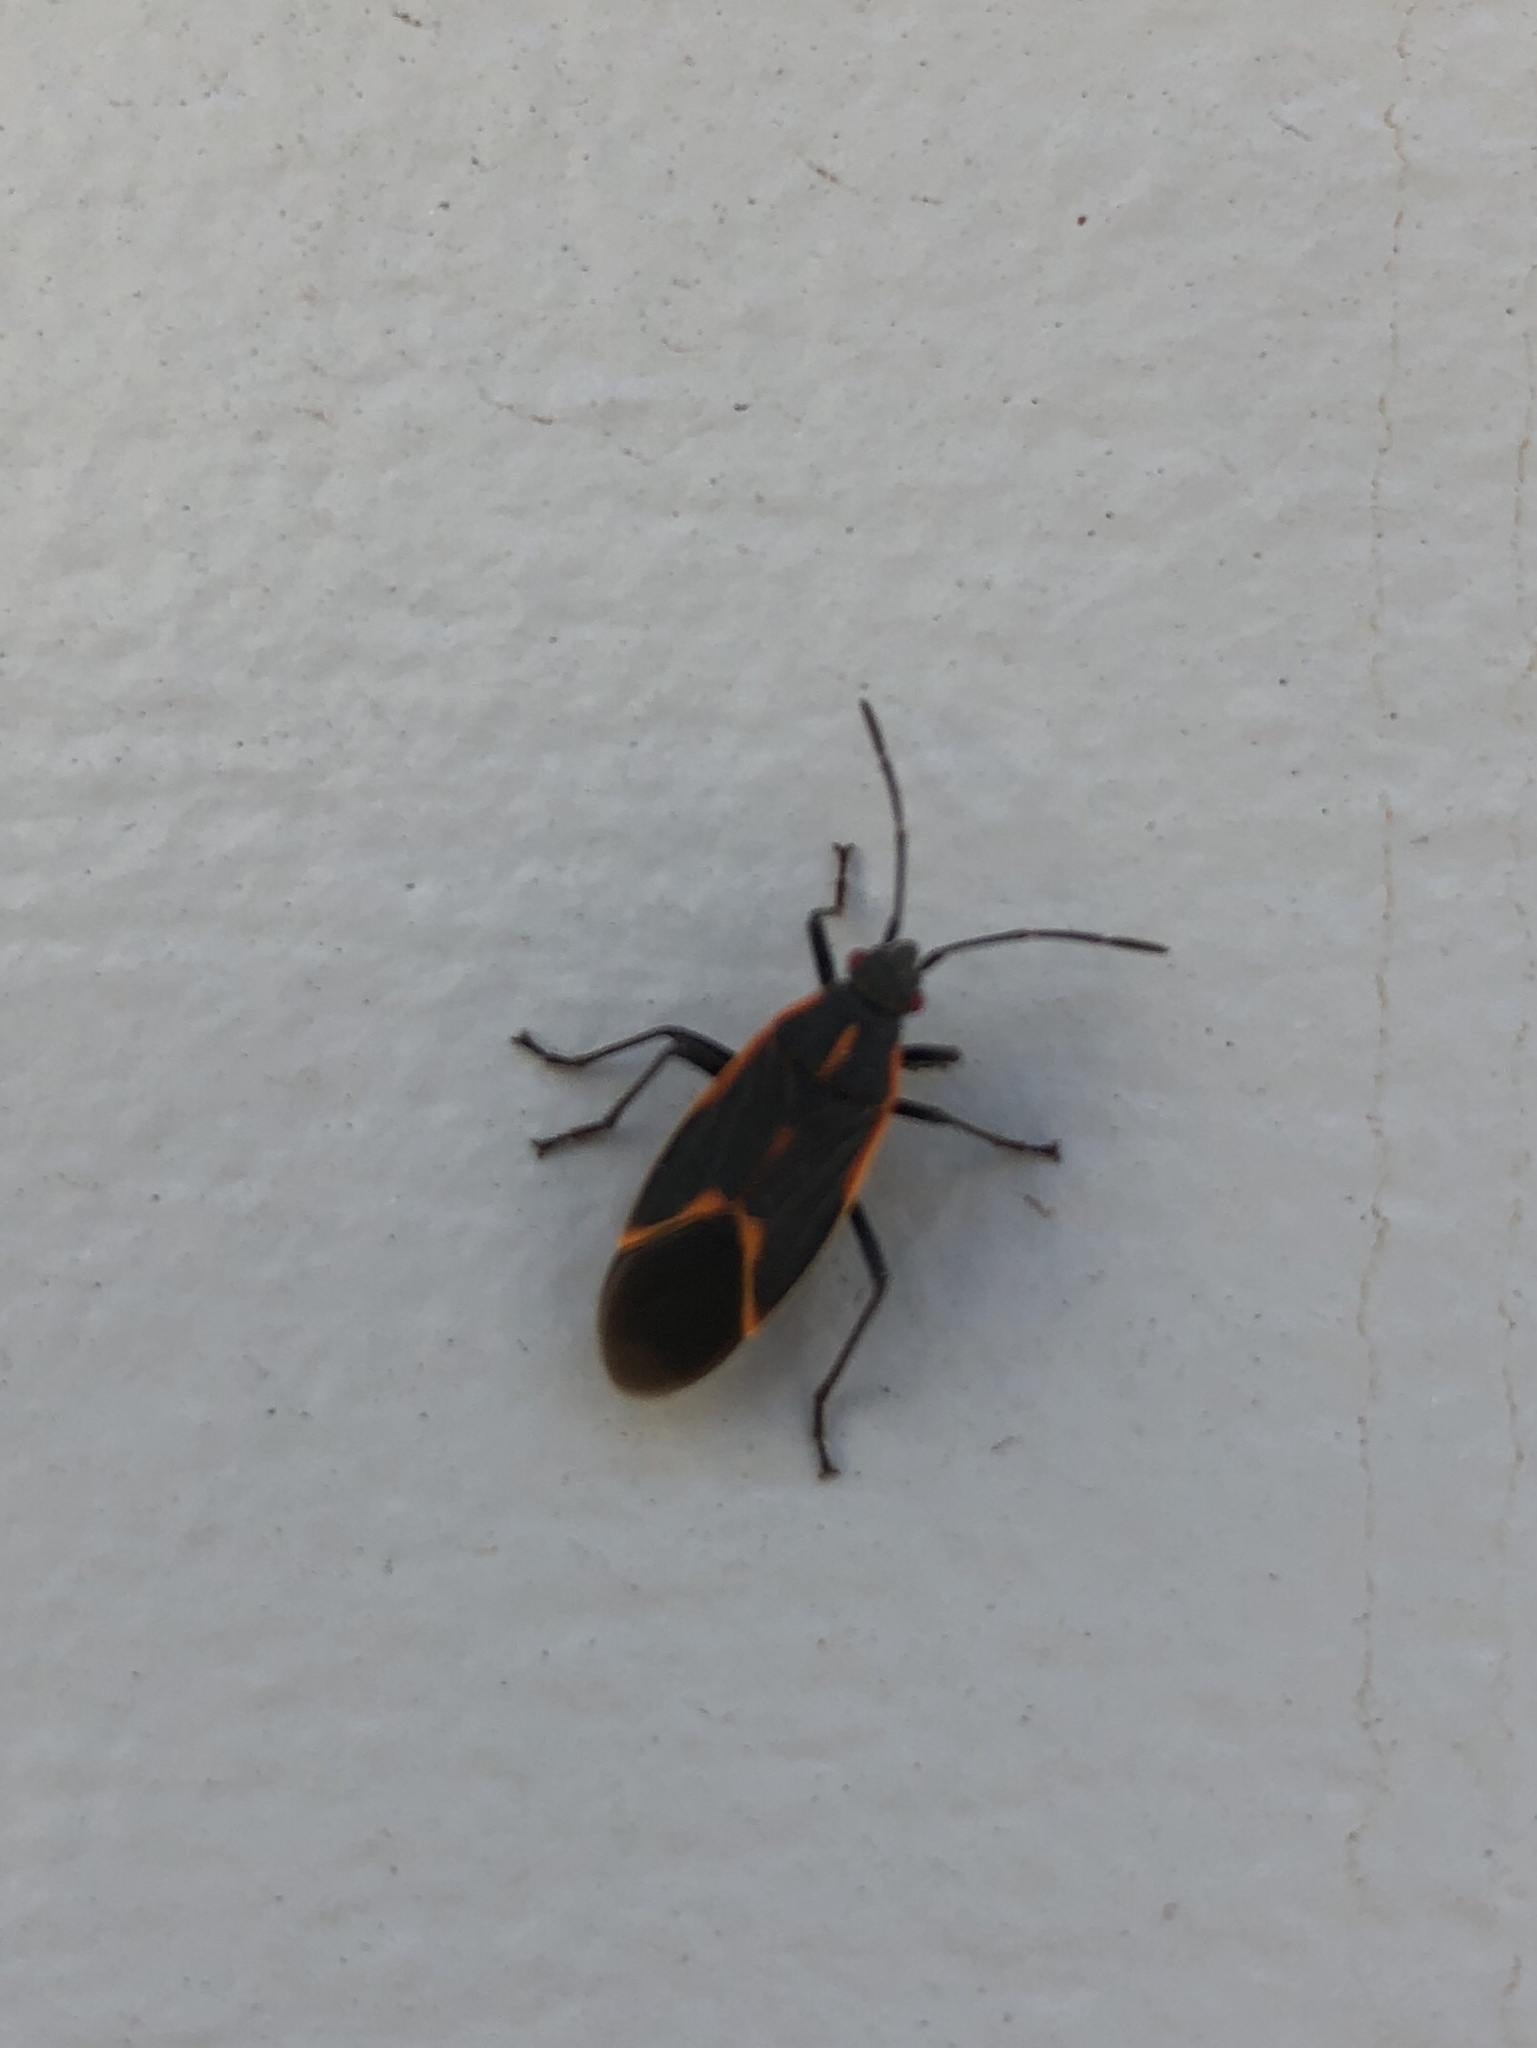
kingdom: Animalia
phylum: Arthropoda
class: Insecta
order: Hemiptera
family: Rhopalidae
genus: Boisea
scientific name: Boisea trivittata
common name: Boxelder bug
